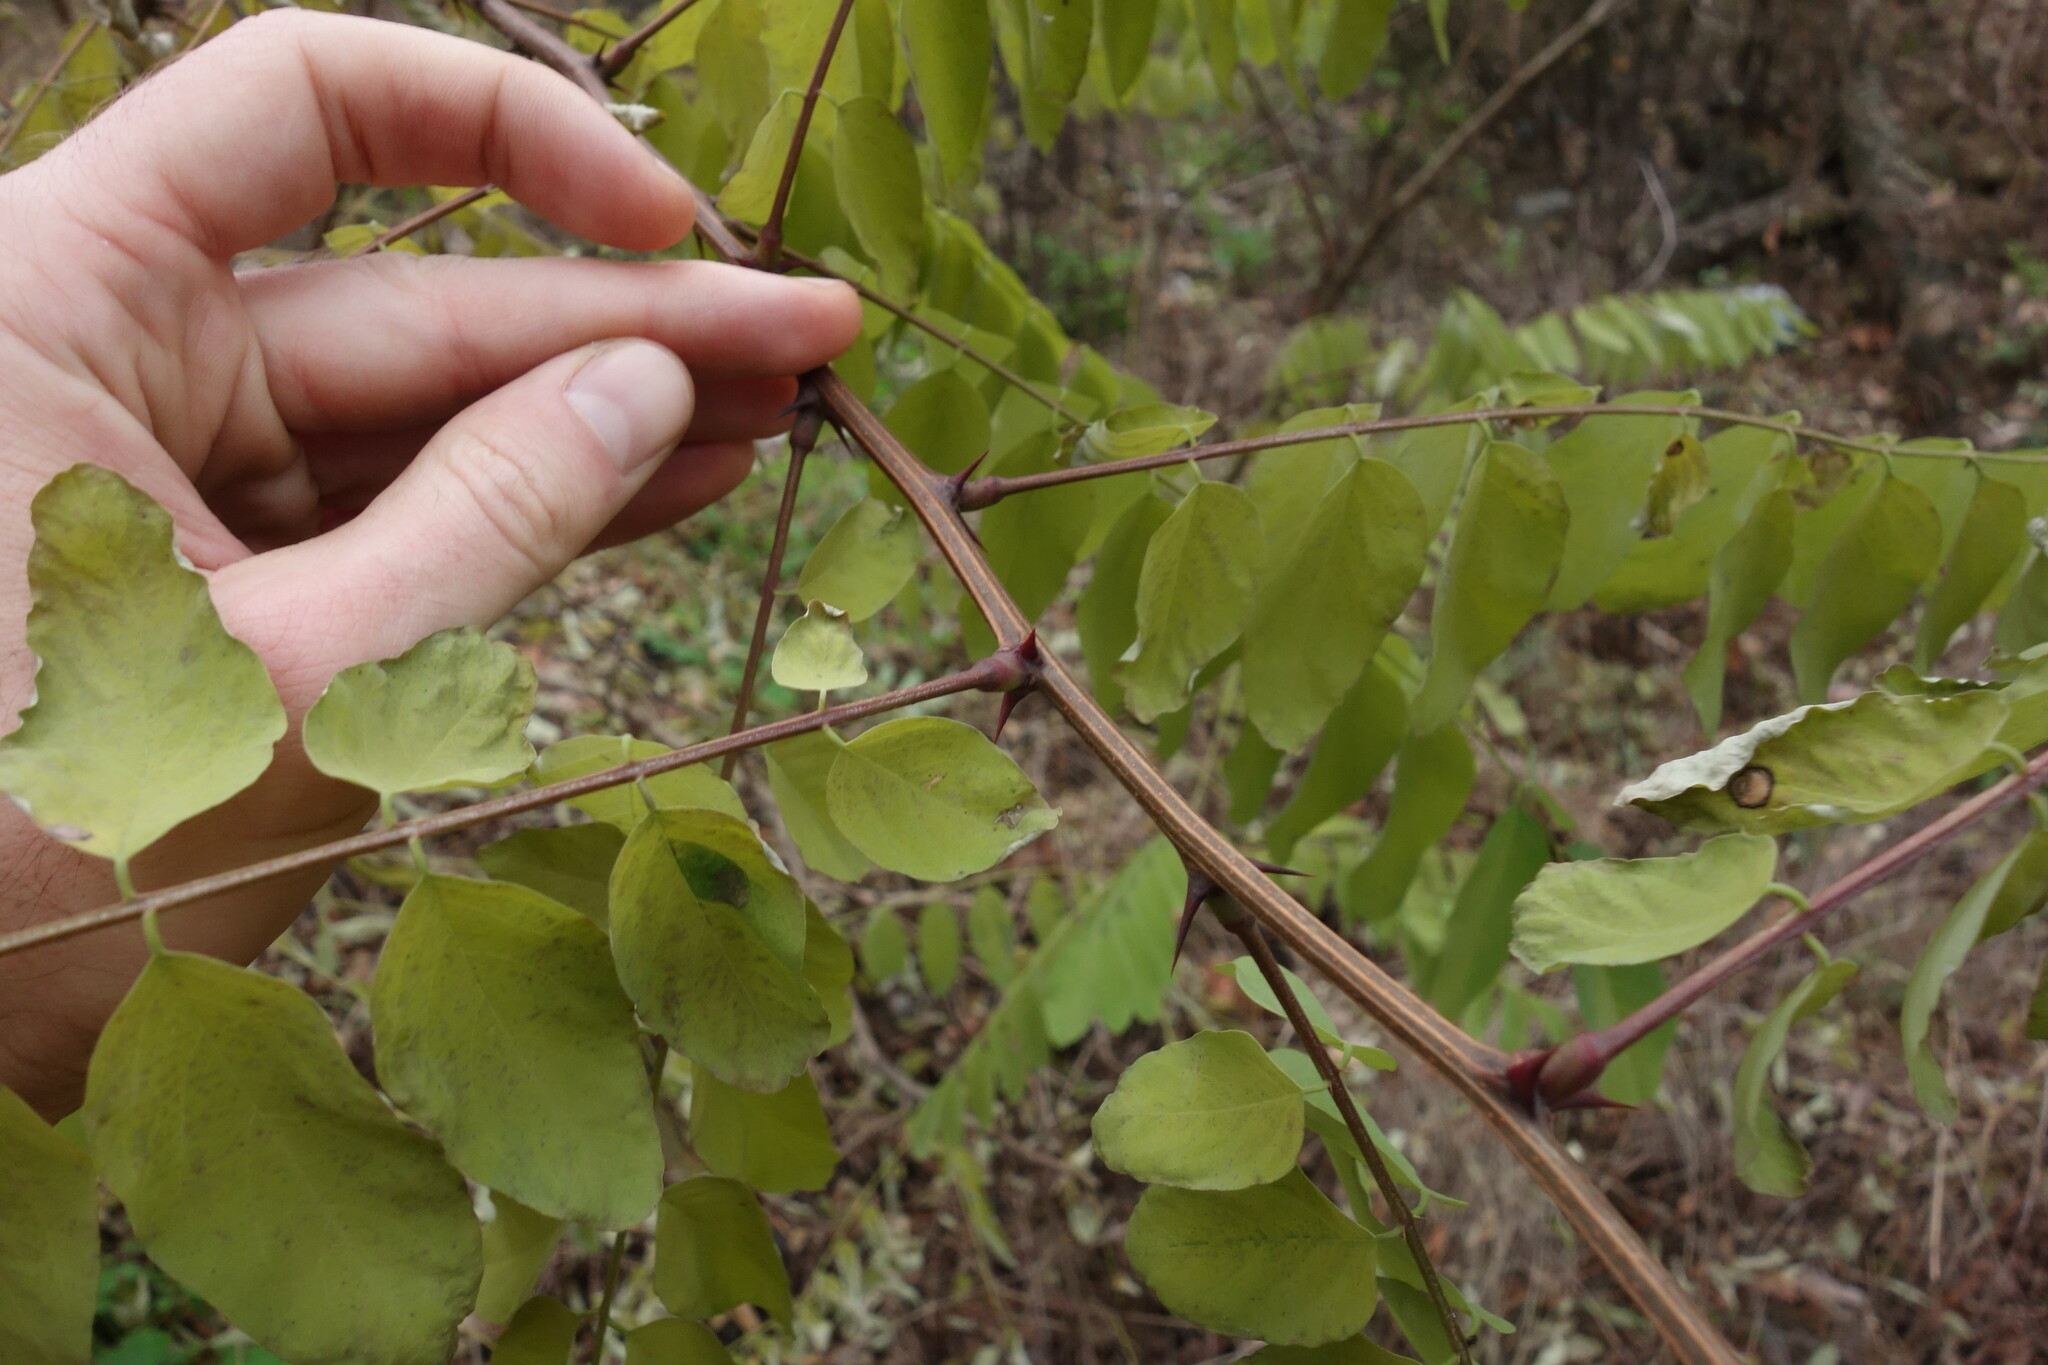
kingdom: Plantae
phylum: Tracheophyta
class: Magnoliopsida
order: Fabales
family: Fabaceae
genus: Robinia
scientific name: Robinia pseudoacacia
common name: Black locust
